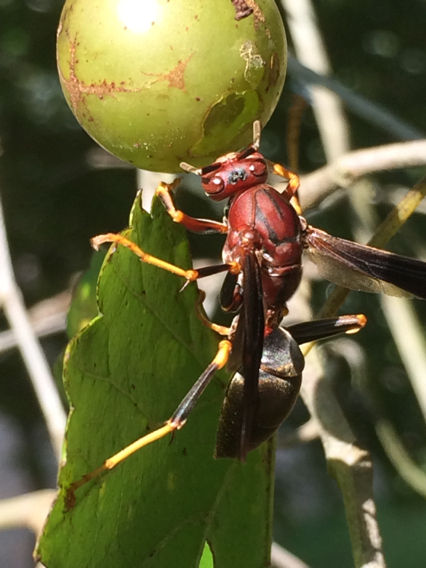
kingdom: Animalia
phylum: Arthropoda
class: Insecta
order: Hymenoptera
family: Eumenidae
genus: Polistes
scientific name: Polistes metricus
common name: Metric paper wasp
